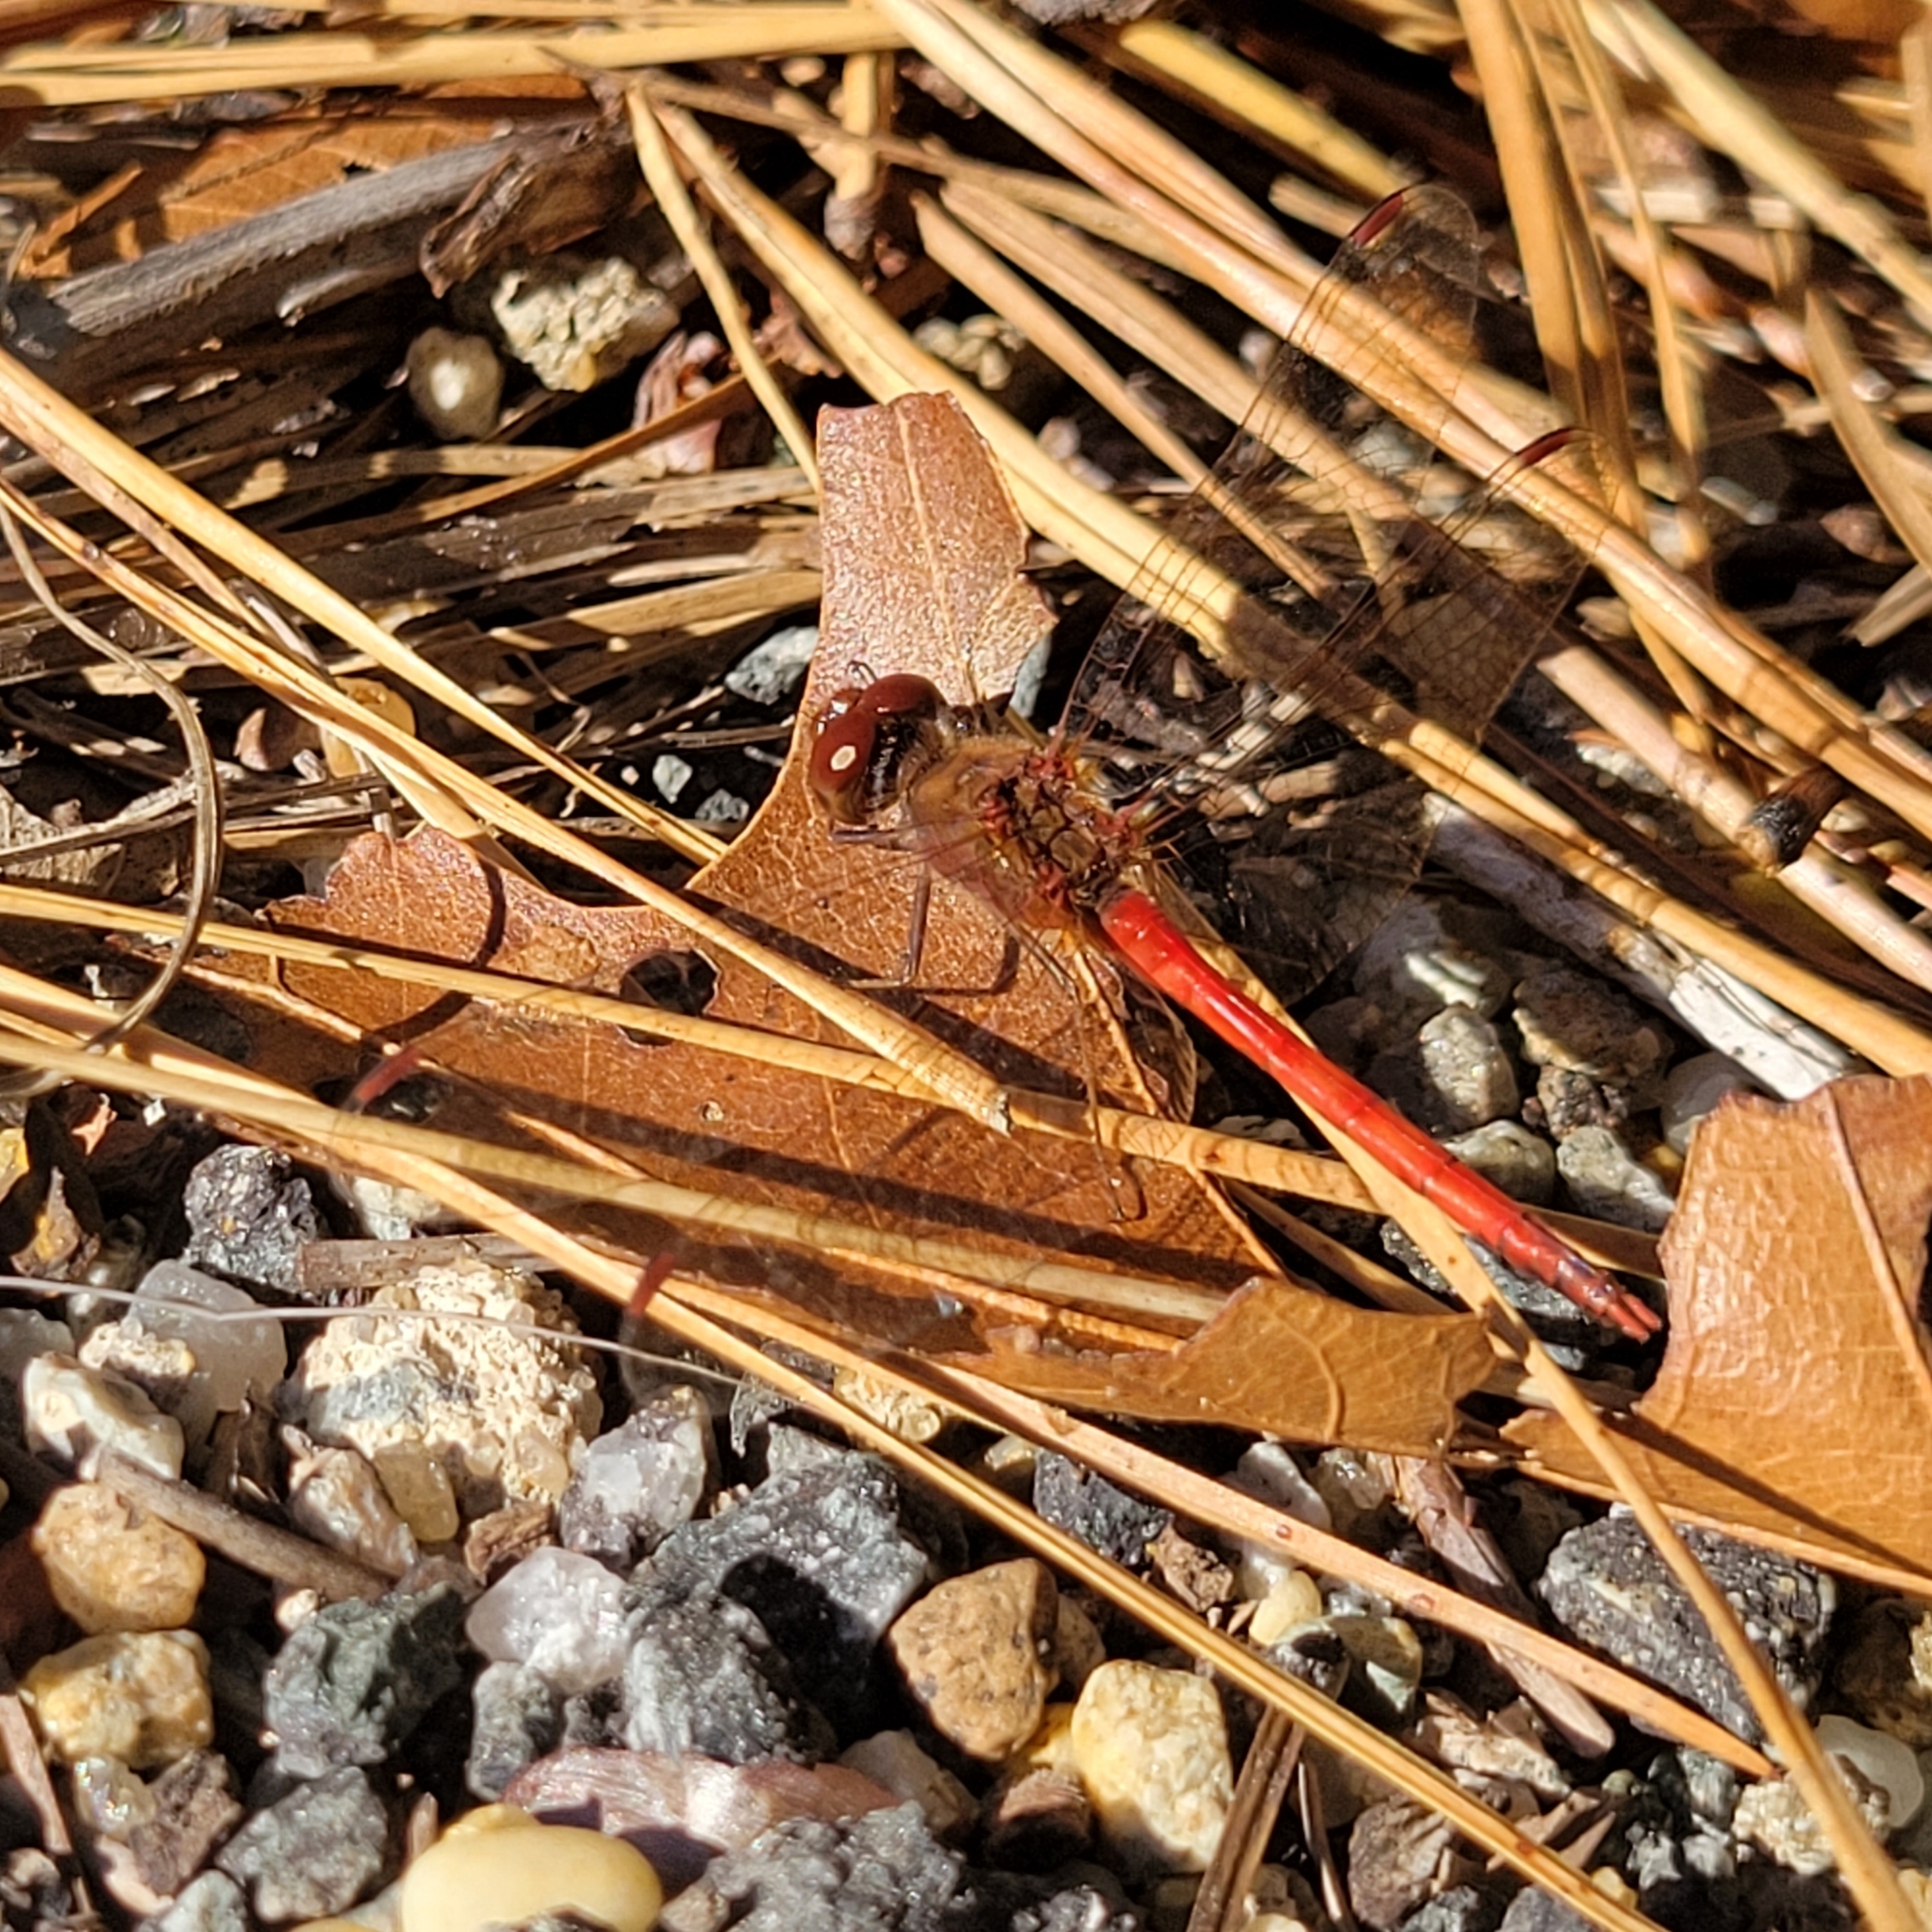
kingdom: Animalia
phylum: Arthropoda
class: Insecta
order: Odonata
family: Libellulidae
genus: Sympetrum
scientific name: Sympetrum vicinum
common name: Autumn meadowhawk
